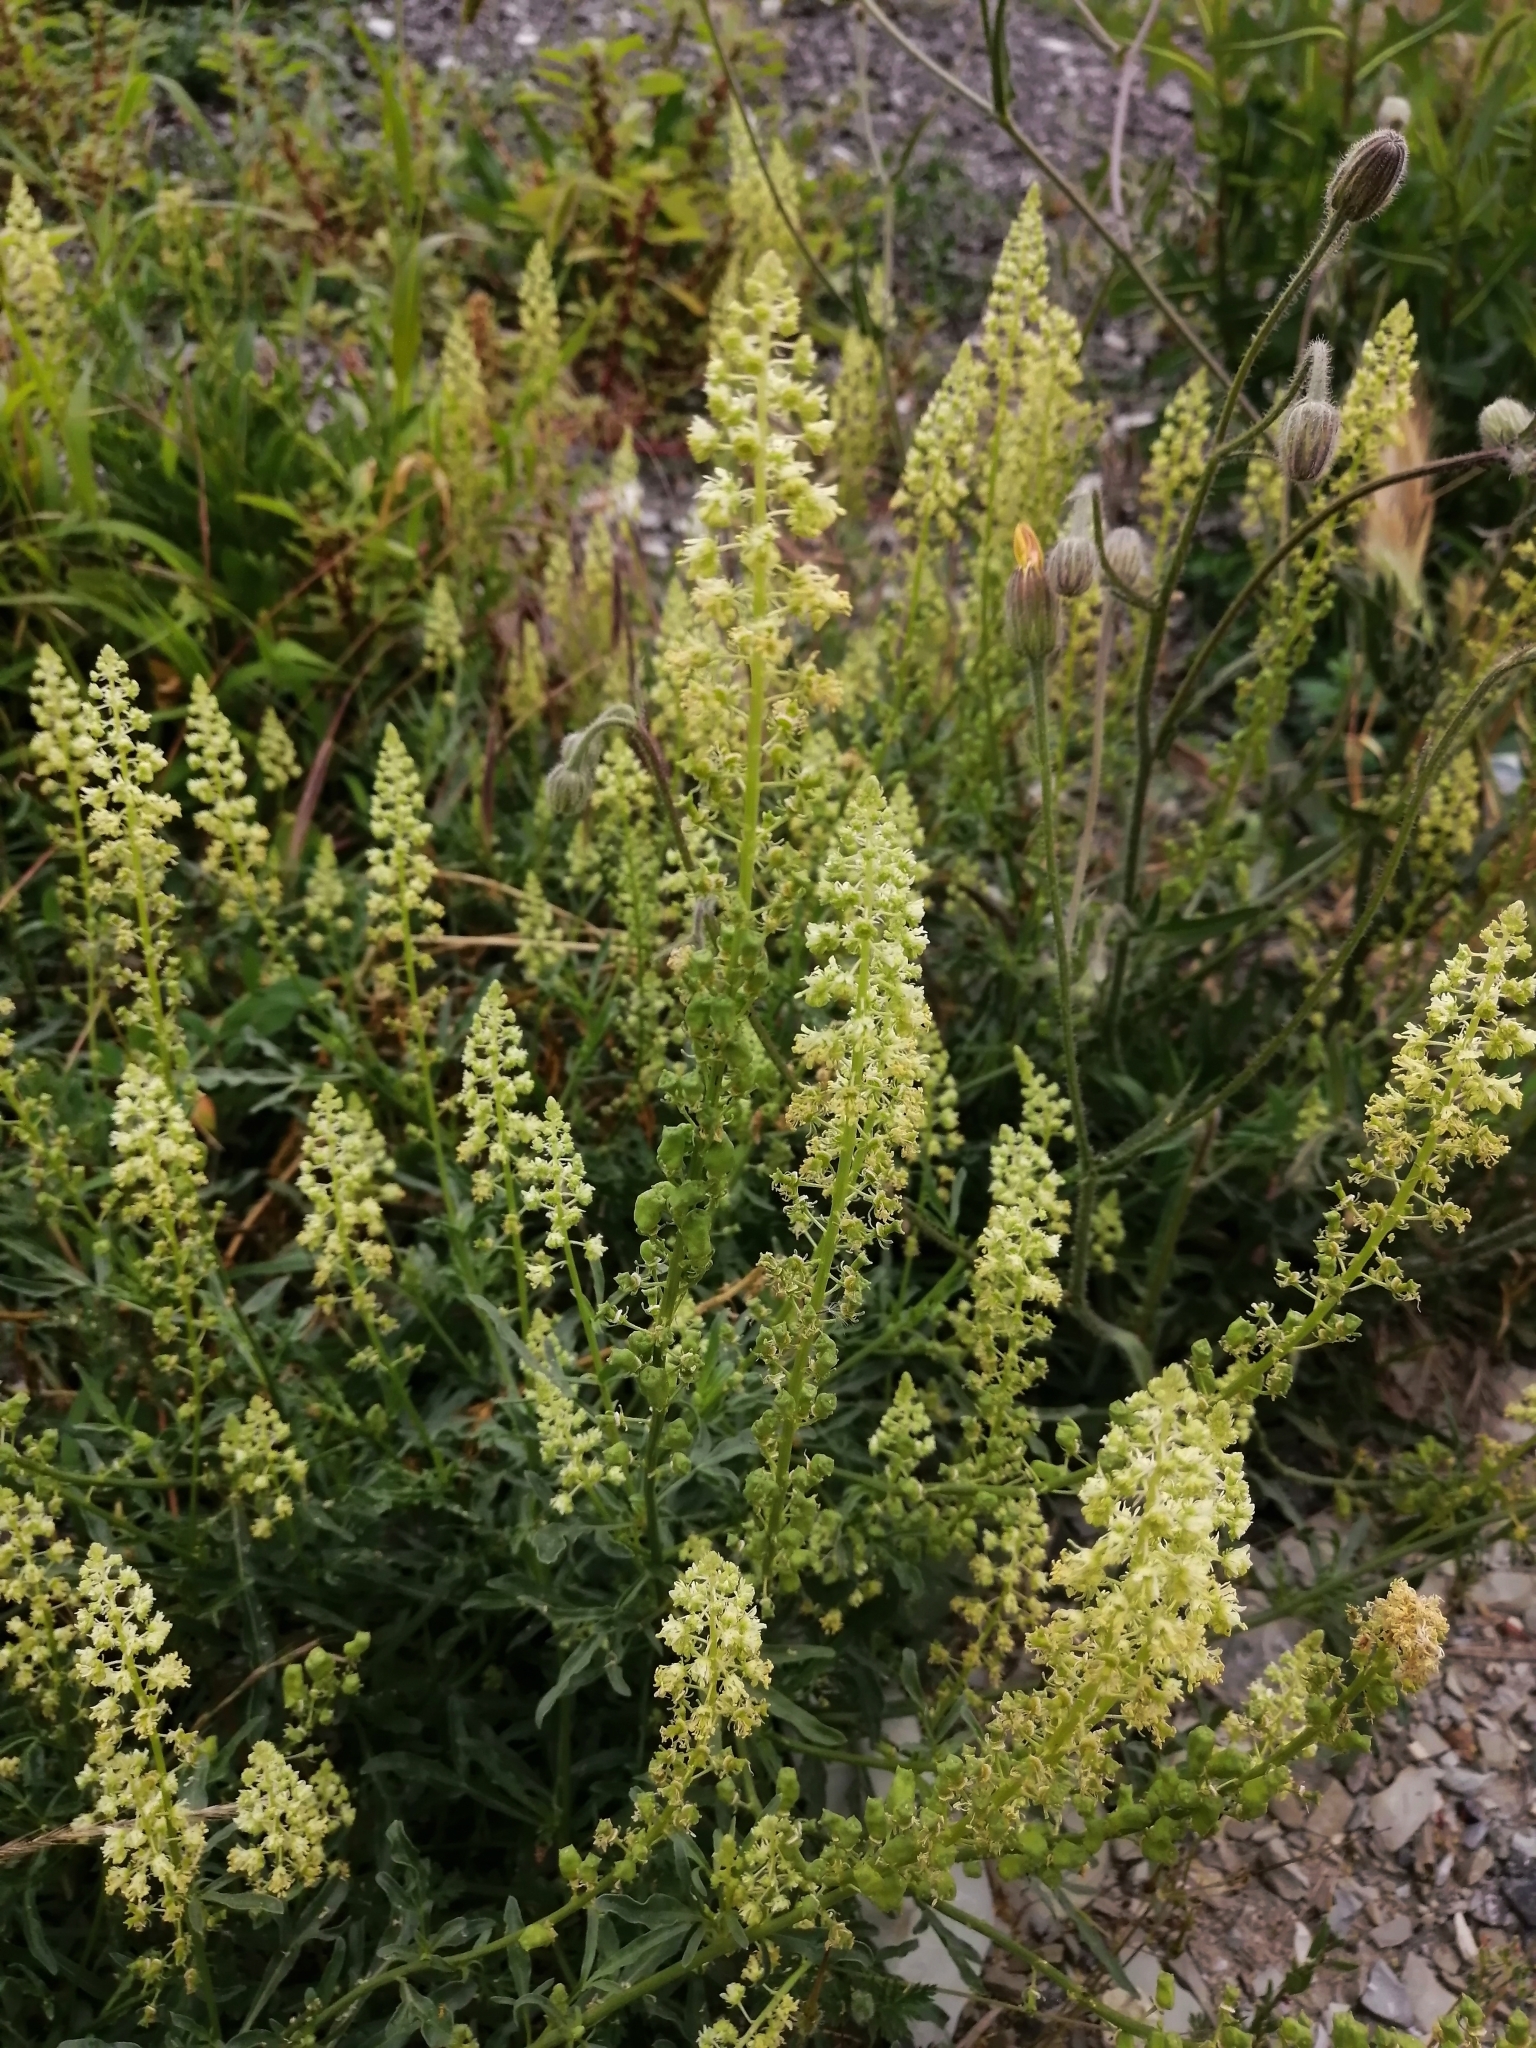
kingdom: Plantae
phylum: Tracheophyta
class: Magnoliopsida
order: Brassicales
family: Resedaceae
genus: Reseda
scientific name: Reseda lutea
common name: Wild mignonette
